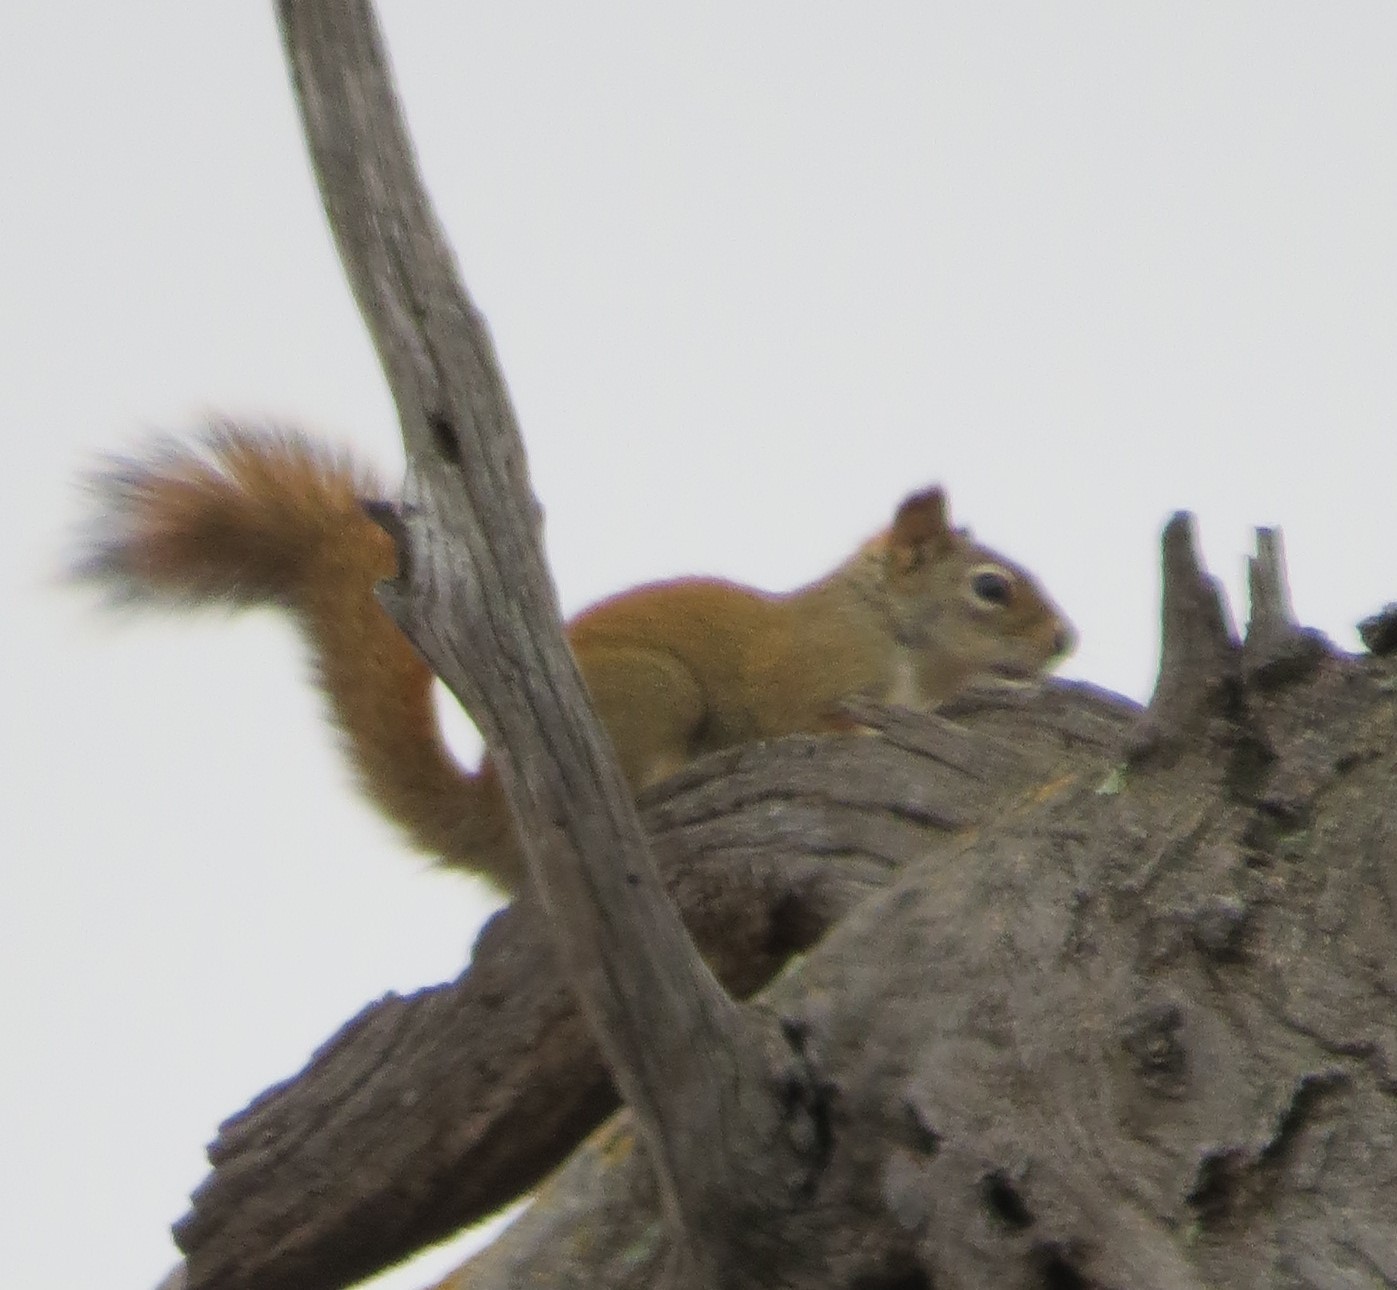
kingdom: Animalia
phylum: Chordata
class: Mammalia
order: Rodentia
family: Sciuridae
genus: Tamiasciurus
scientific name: Tamiasciurus hudsonicus
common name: Red squirrel
